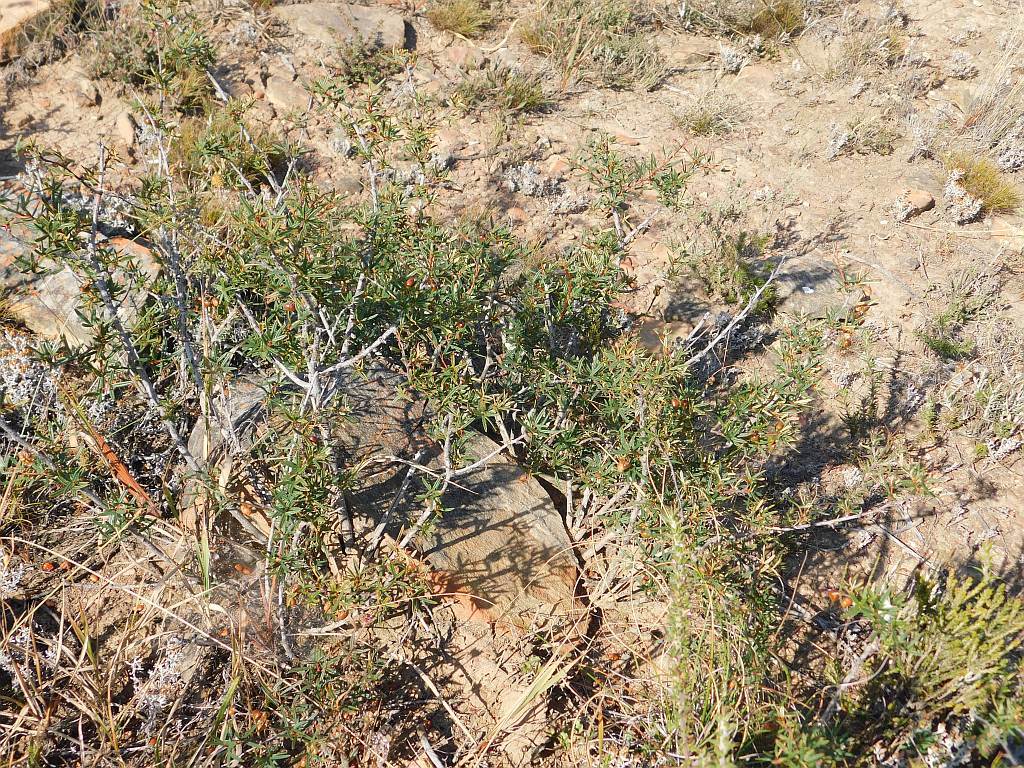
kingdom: Plantae
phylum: Tracheophyta
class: Magnoliopsida
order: Sapindales
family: Anacardiaceae
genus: Searsia
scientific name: Searsia rosmarinifolia
